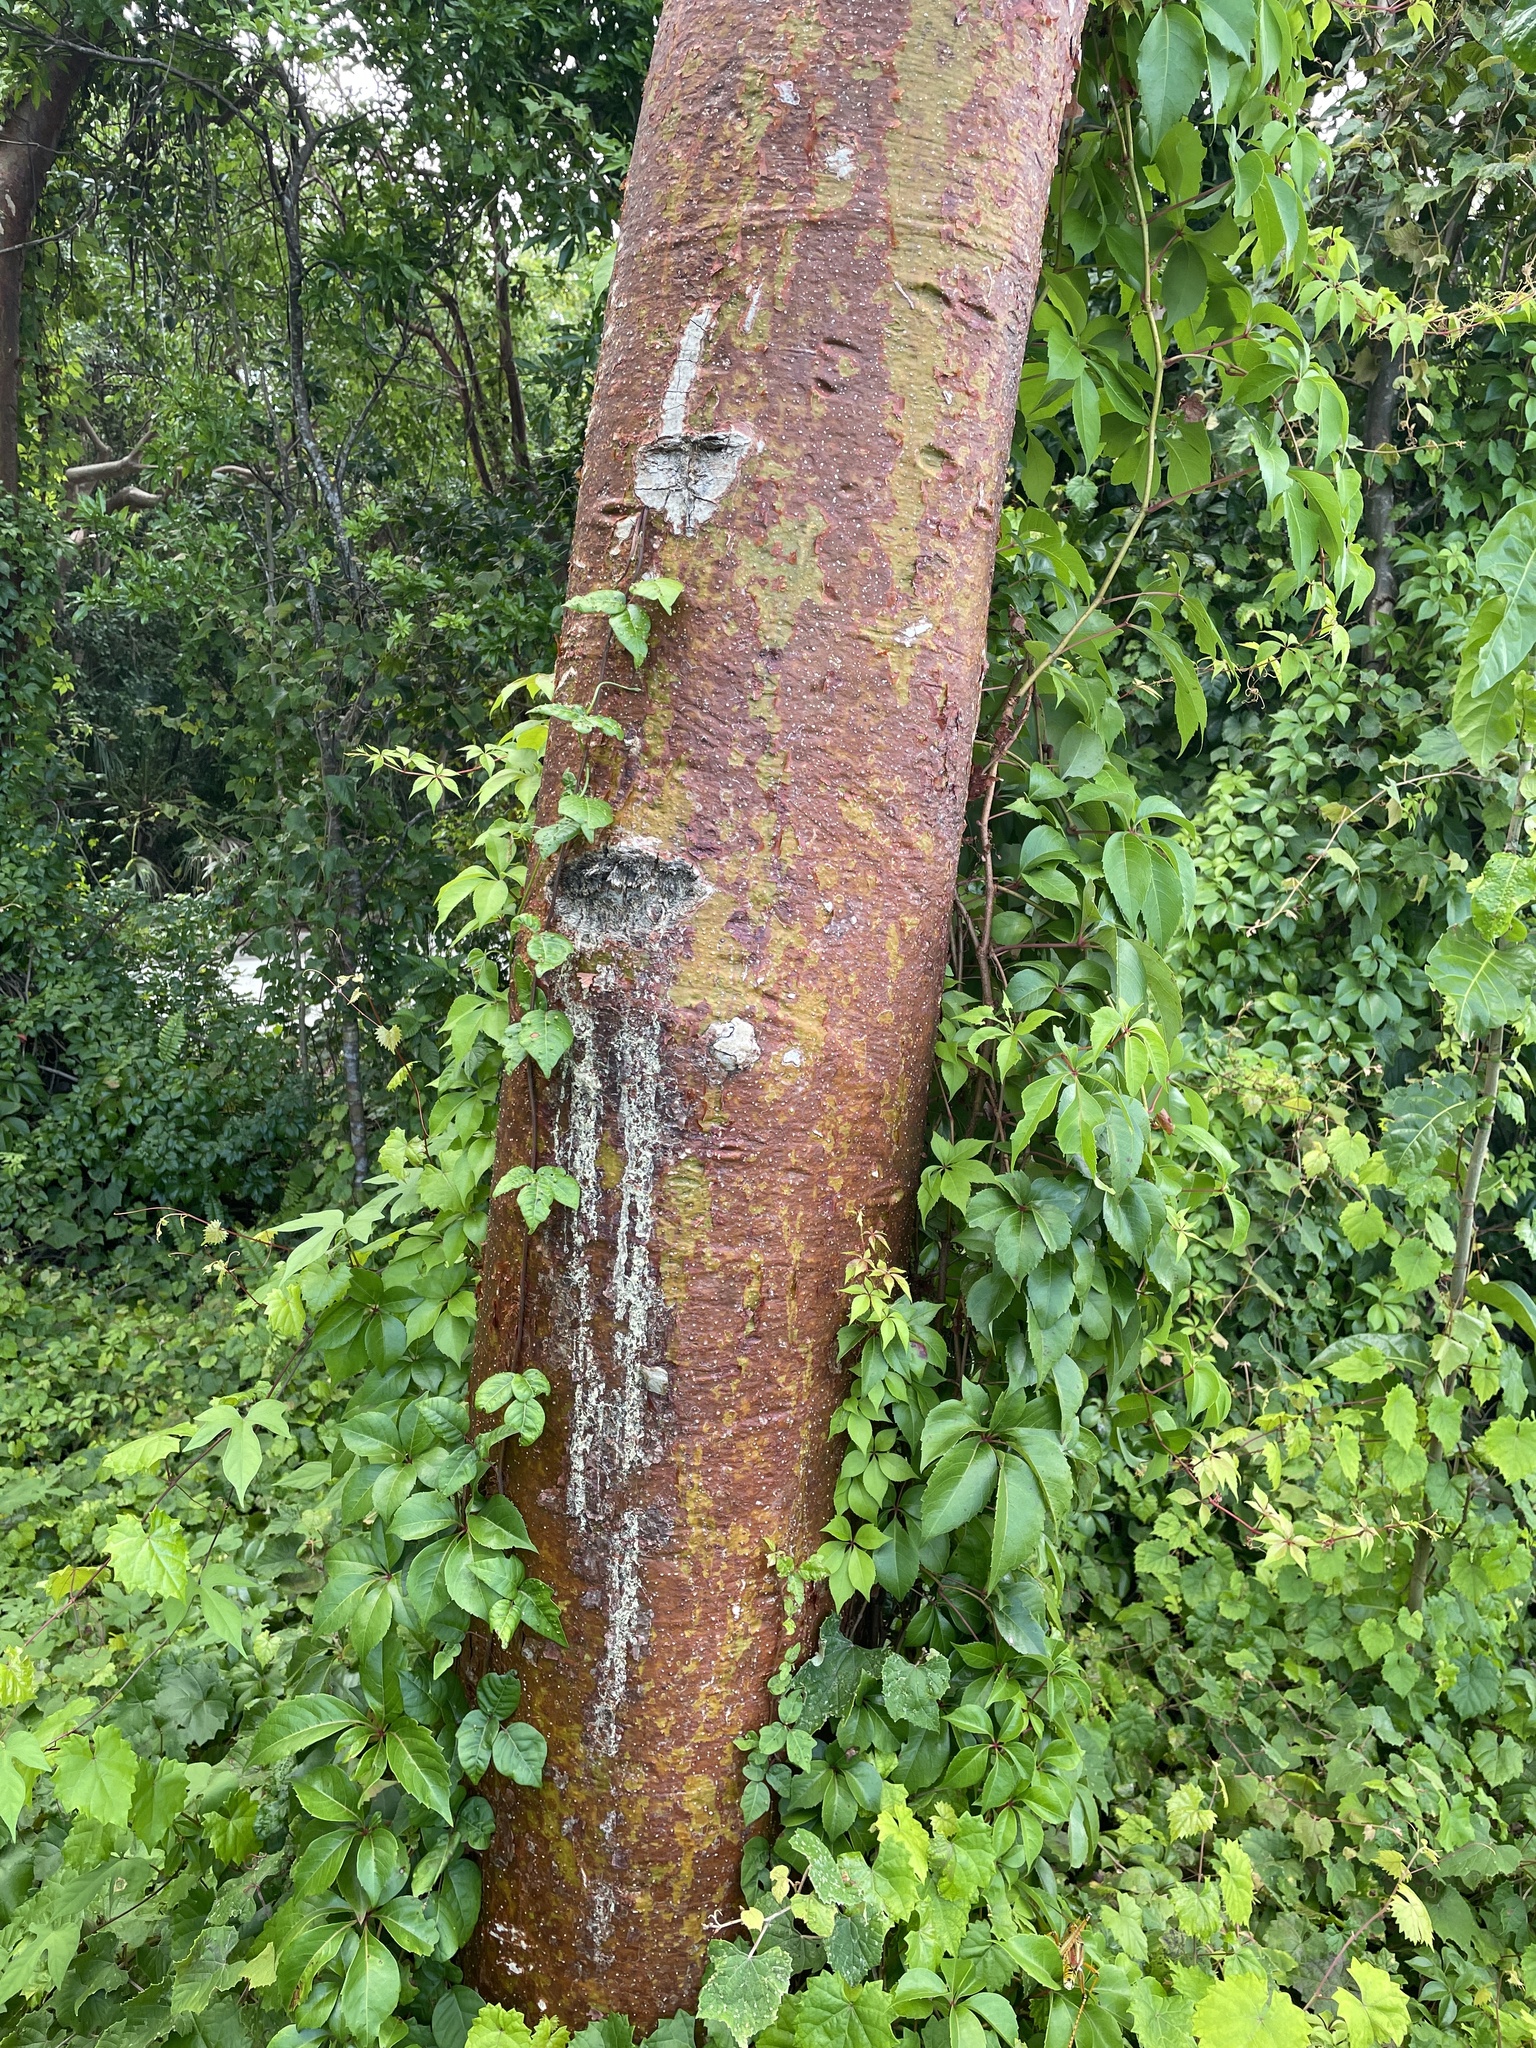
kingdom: Plantae
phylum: Tracheophyta
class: Magnoliopsida
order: Sapindales
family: Burseraceae
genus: Bursera
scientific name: Bursera simaruba
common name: Turpentine tree
